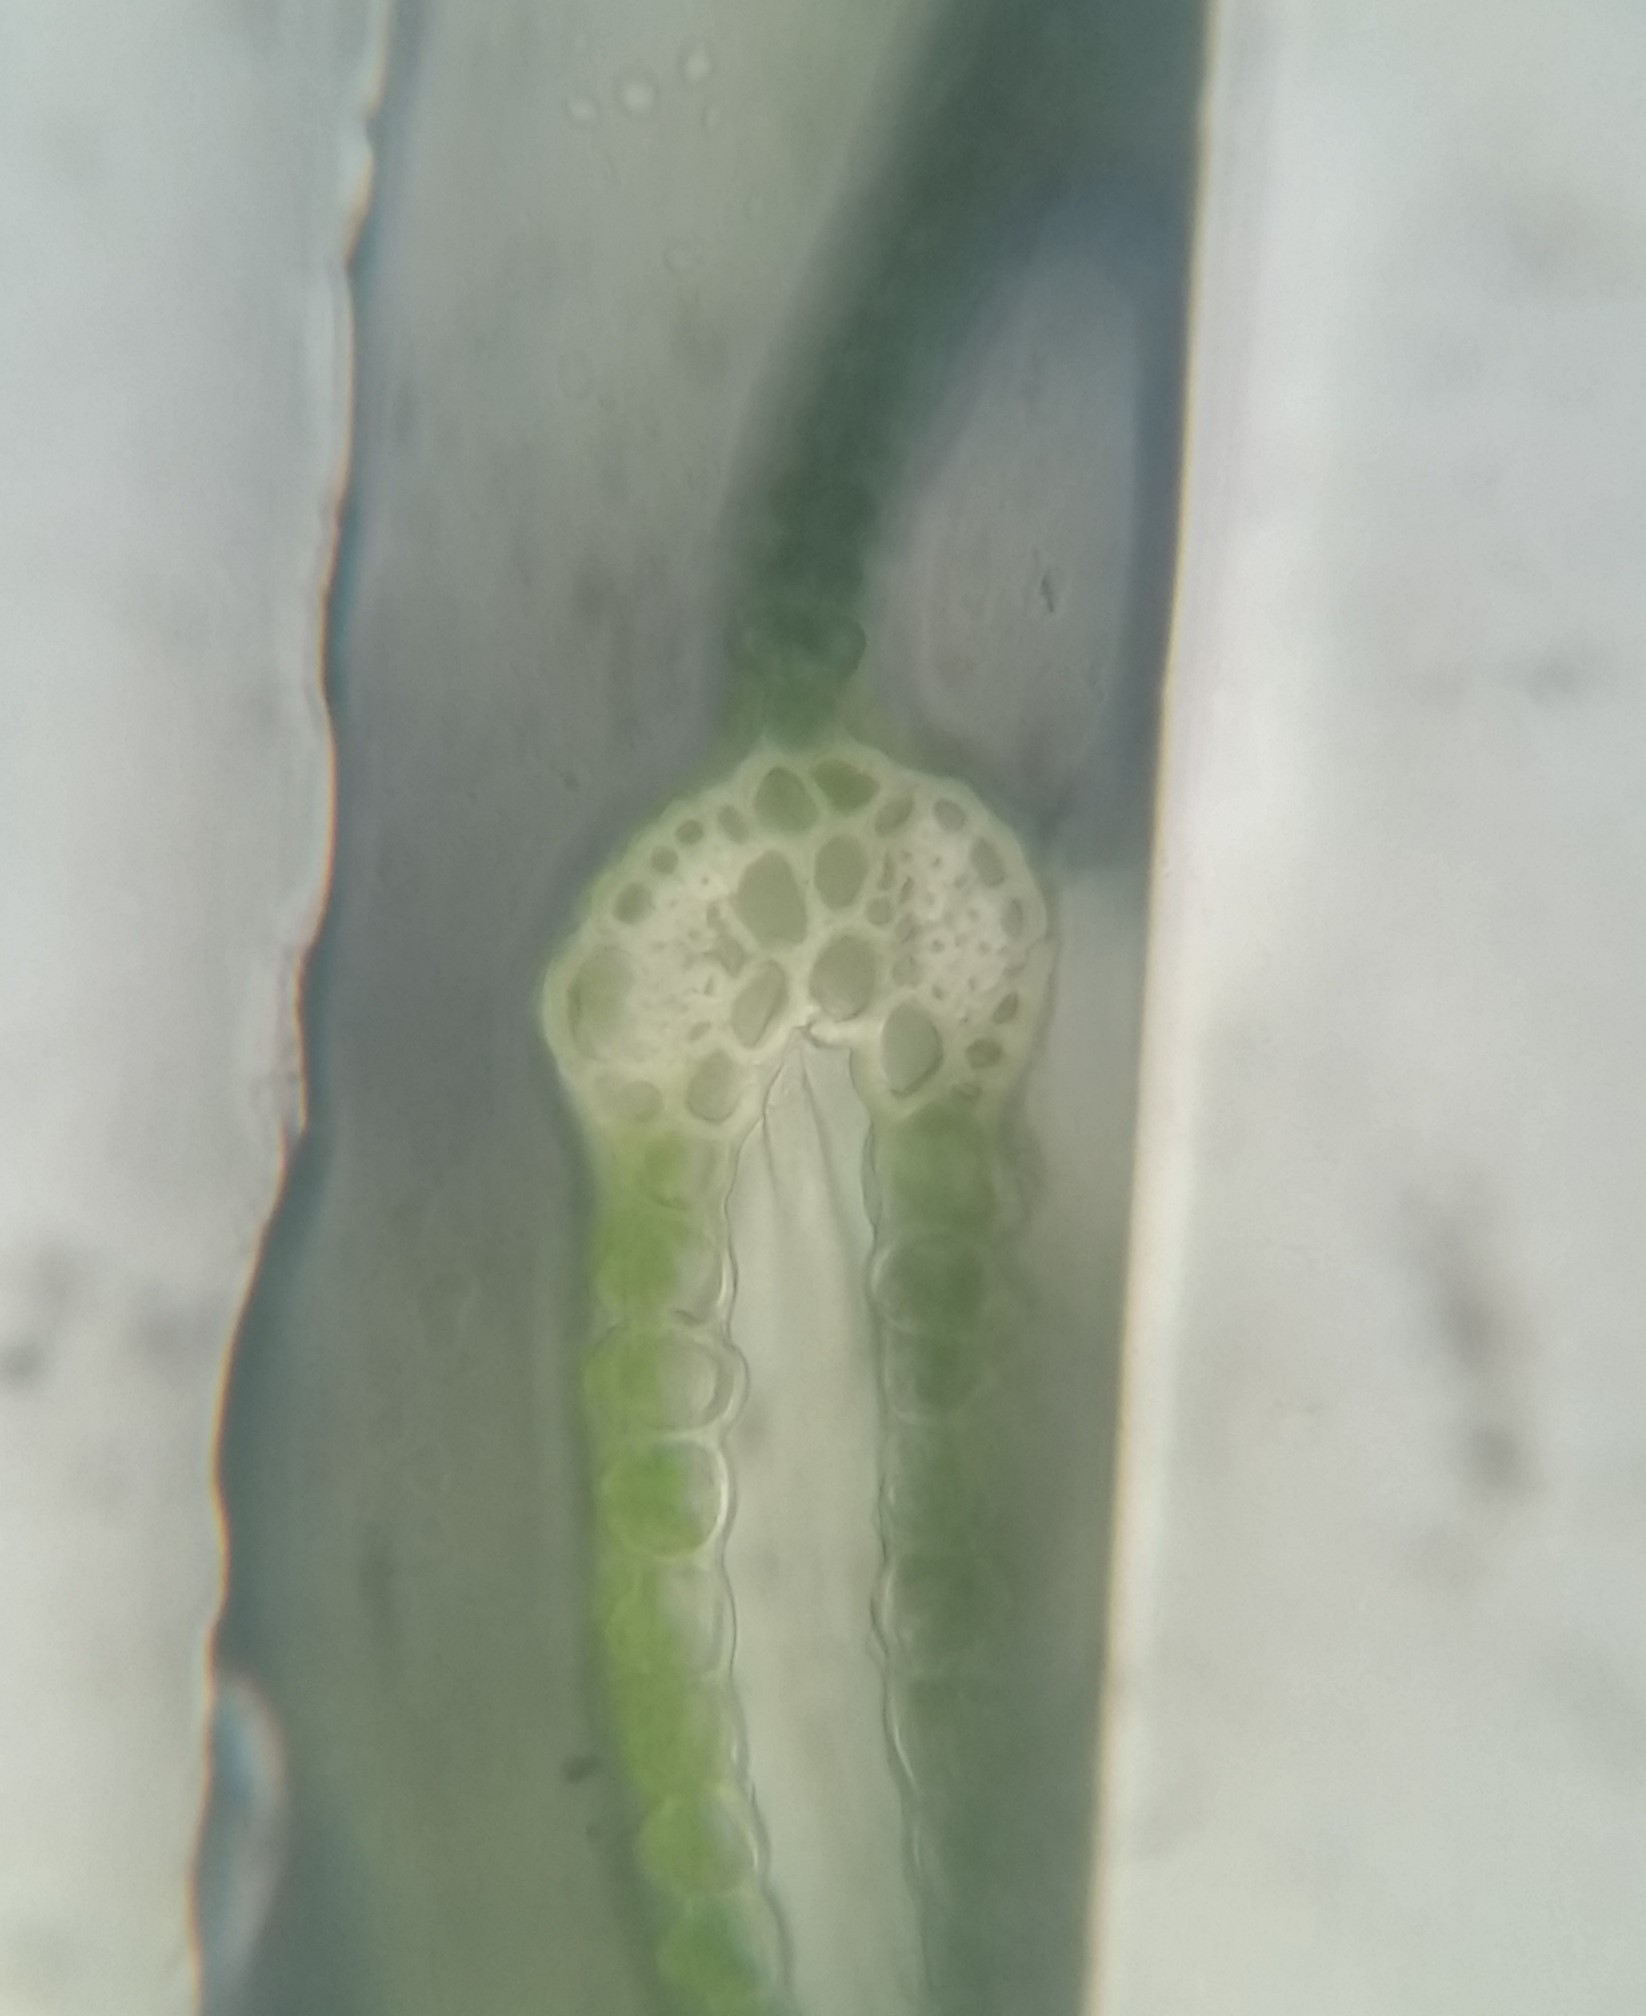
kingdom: Plantae
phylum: Bryophyta
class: Bryopsida
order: Dicranales
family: Fissidentaceae
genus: Fissidens
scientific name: Fissidens taxifolius
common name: Yew-leaved pocket moss
